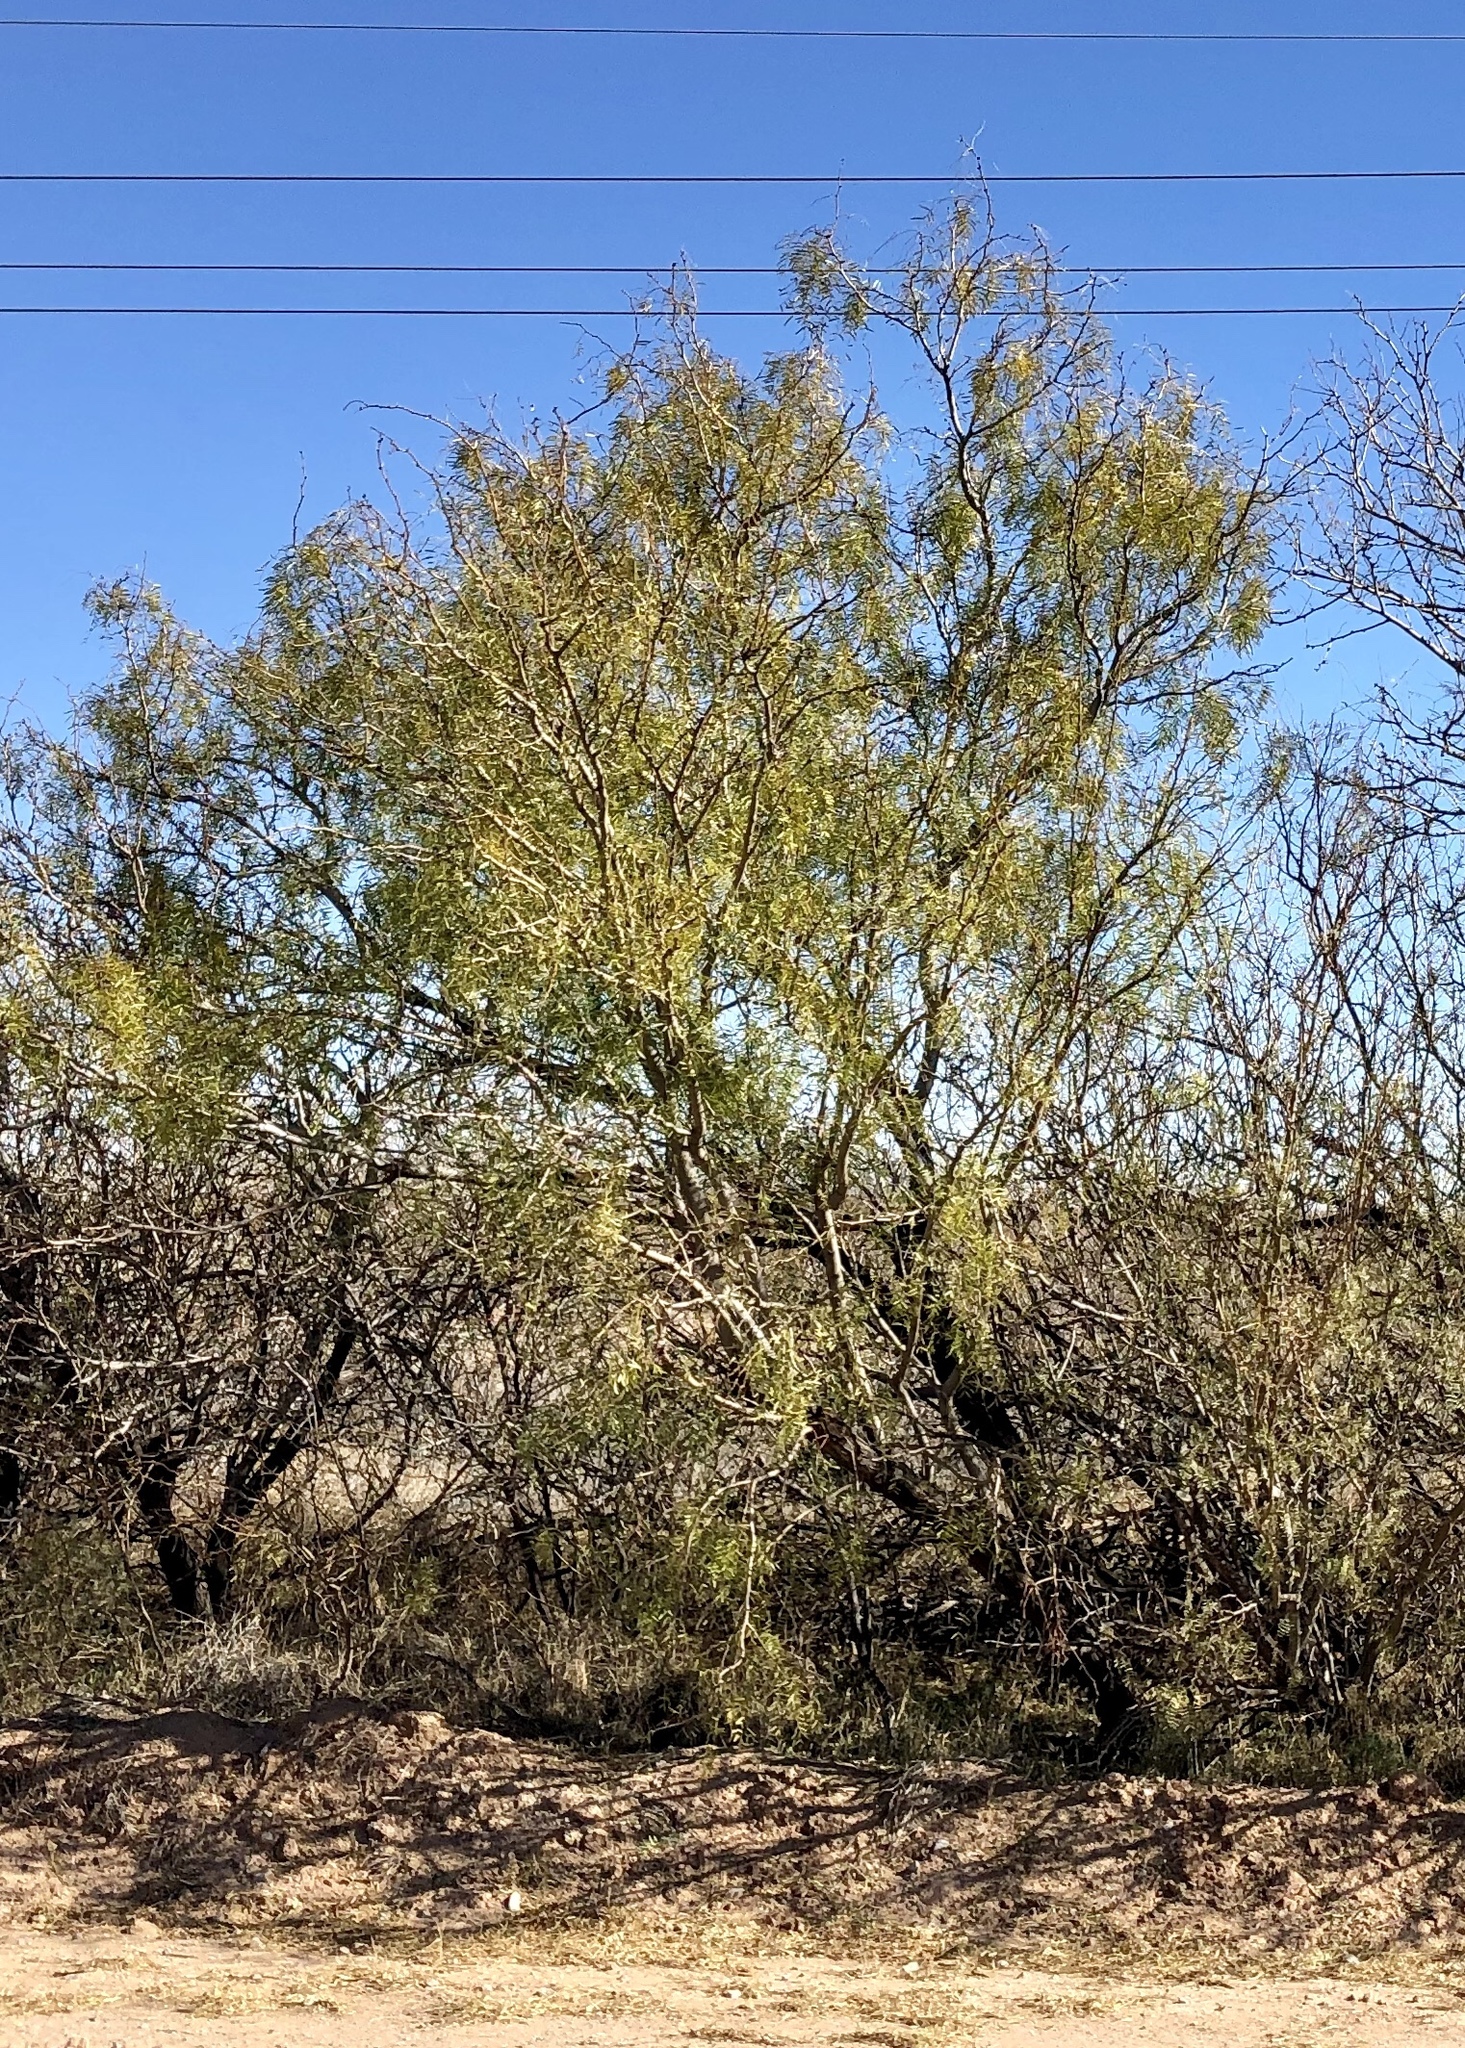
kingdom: Plantae
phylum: Tracheophyta
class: Magnoliopsida
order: Fabales
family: Fabaceae
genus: Prosopis
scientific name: Prosopis glandulosa
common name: Honey mesquite
